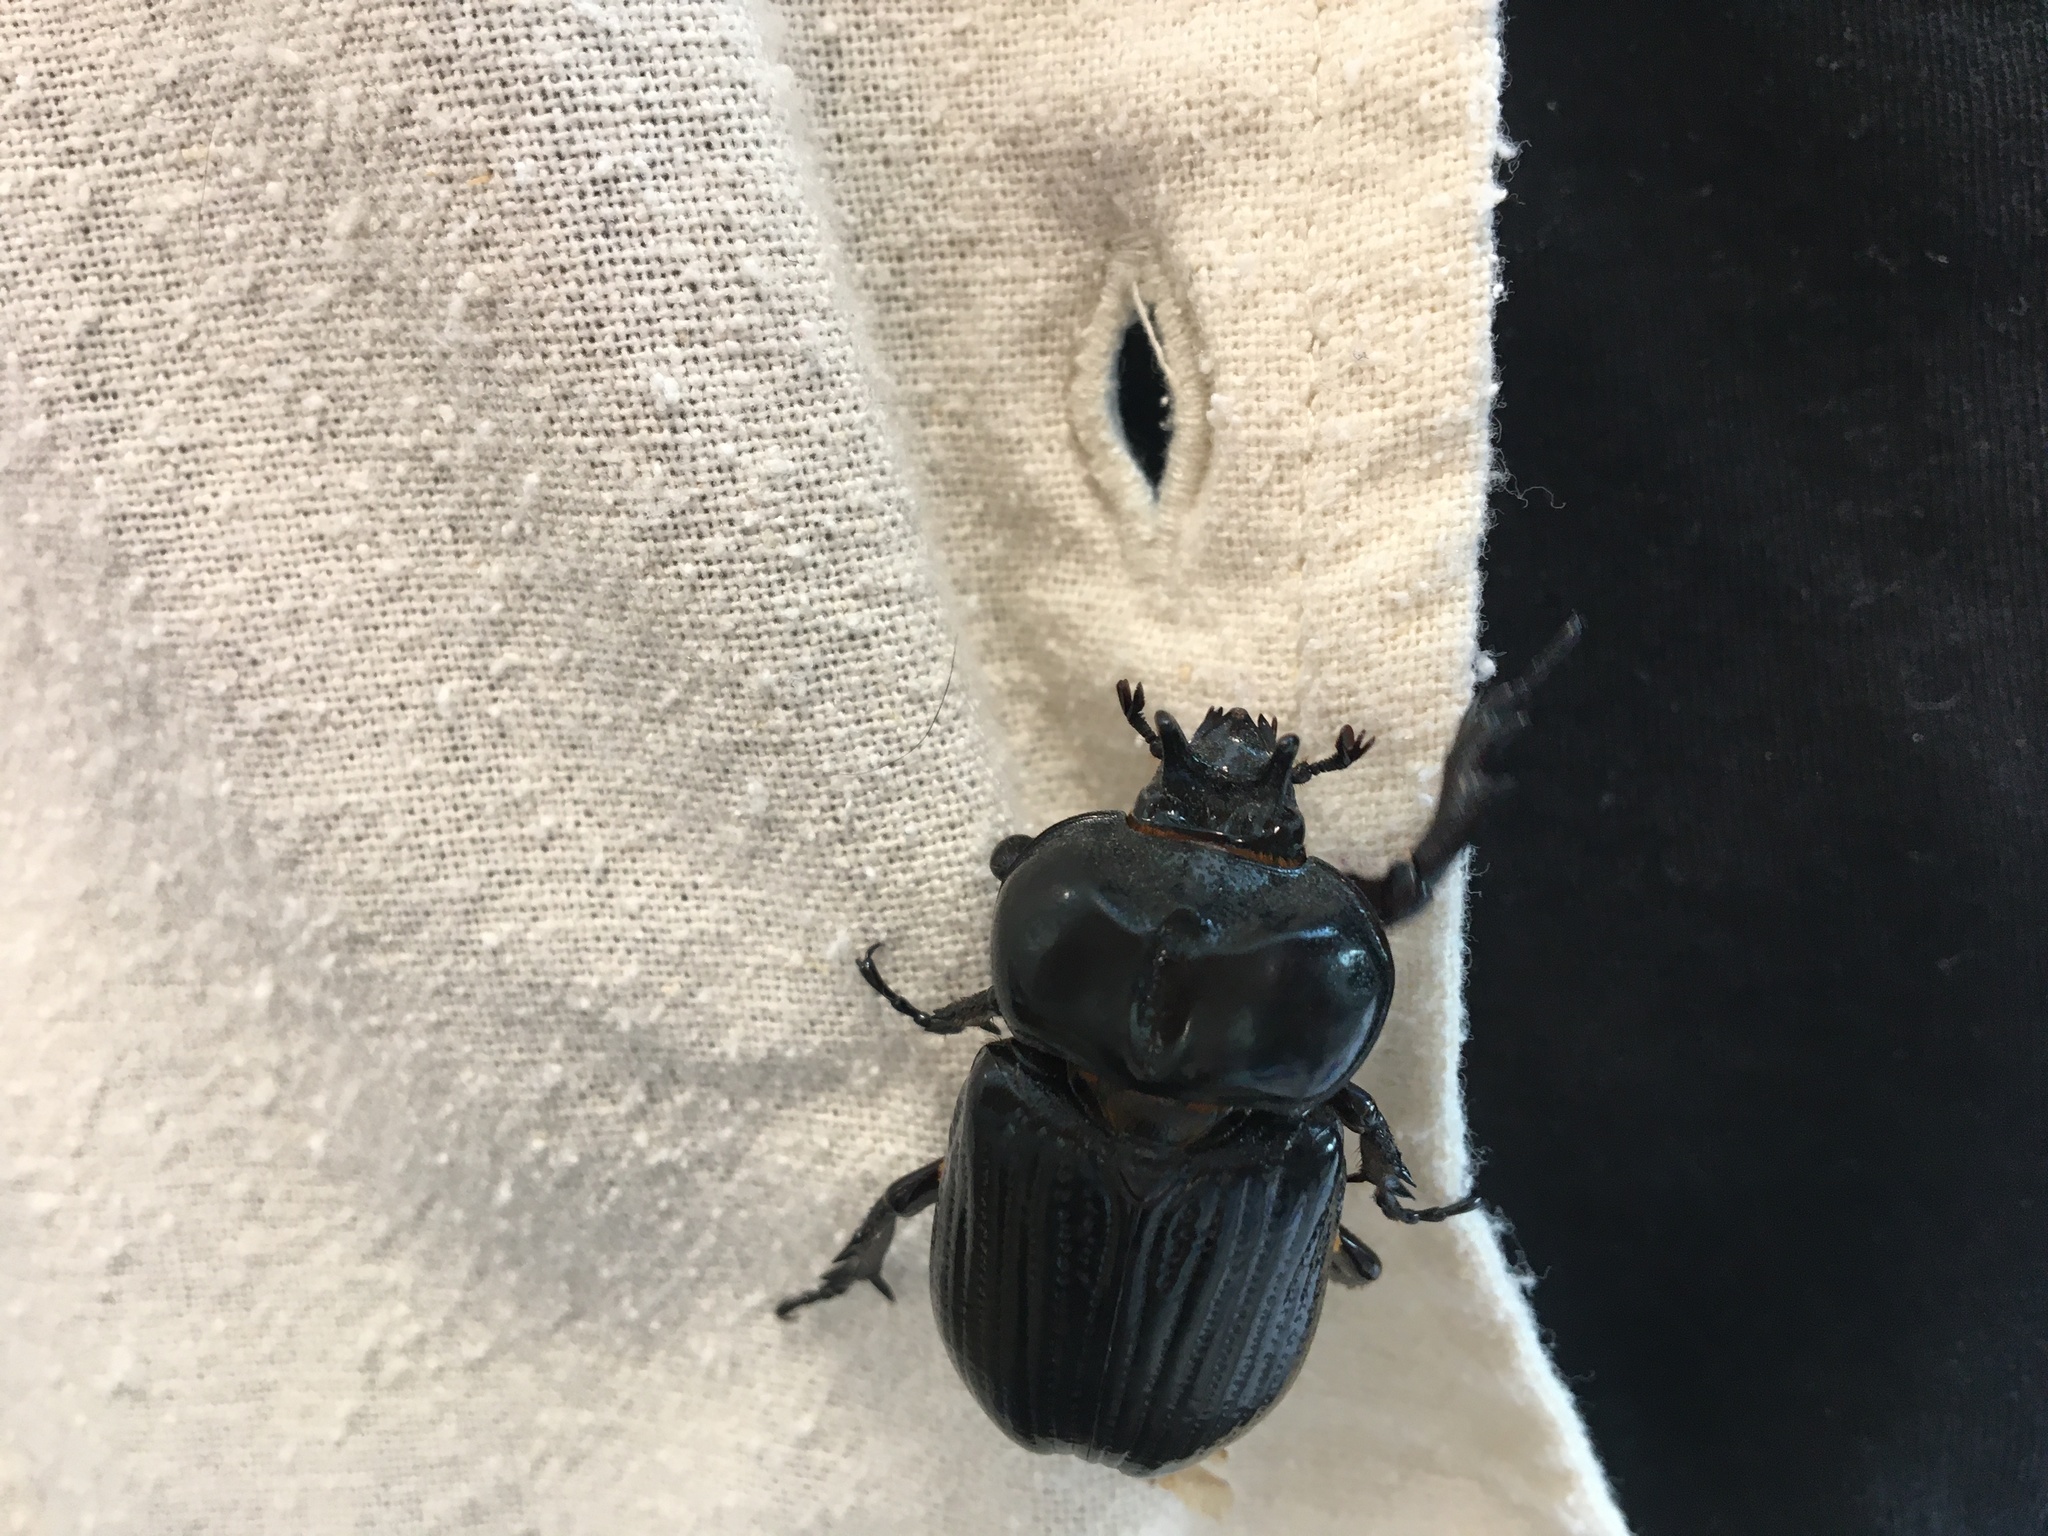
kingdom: Animalia
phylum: Arthropoda
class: Insecta
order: Coleoptera
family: Scarabaeidae
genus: Phileurus
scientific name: Phileurus truncatus
